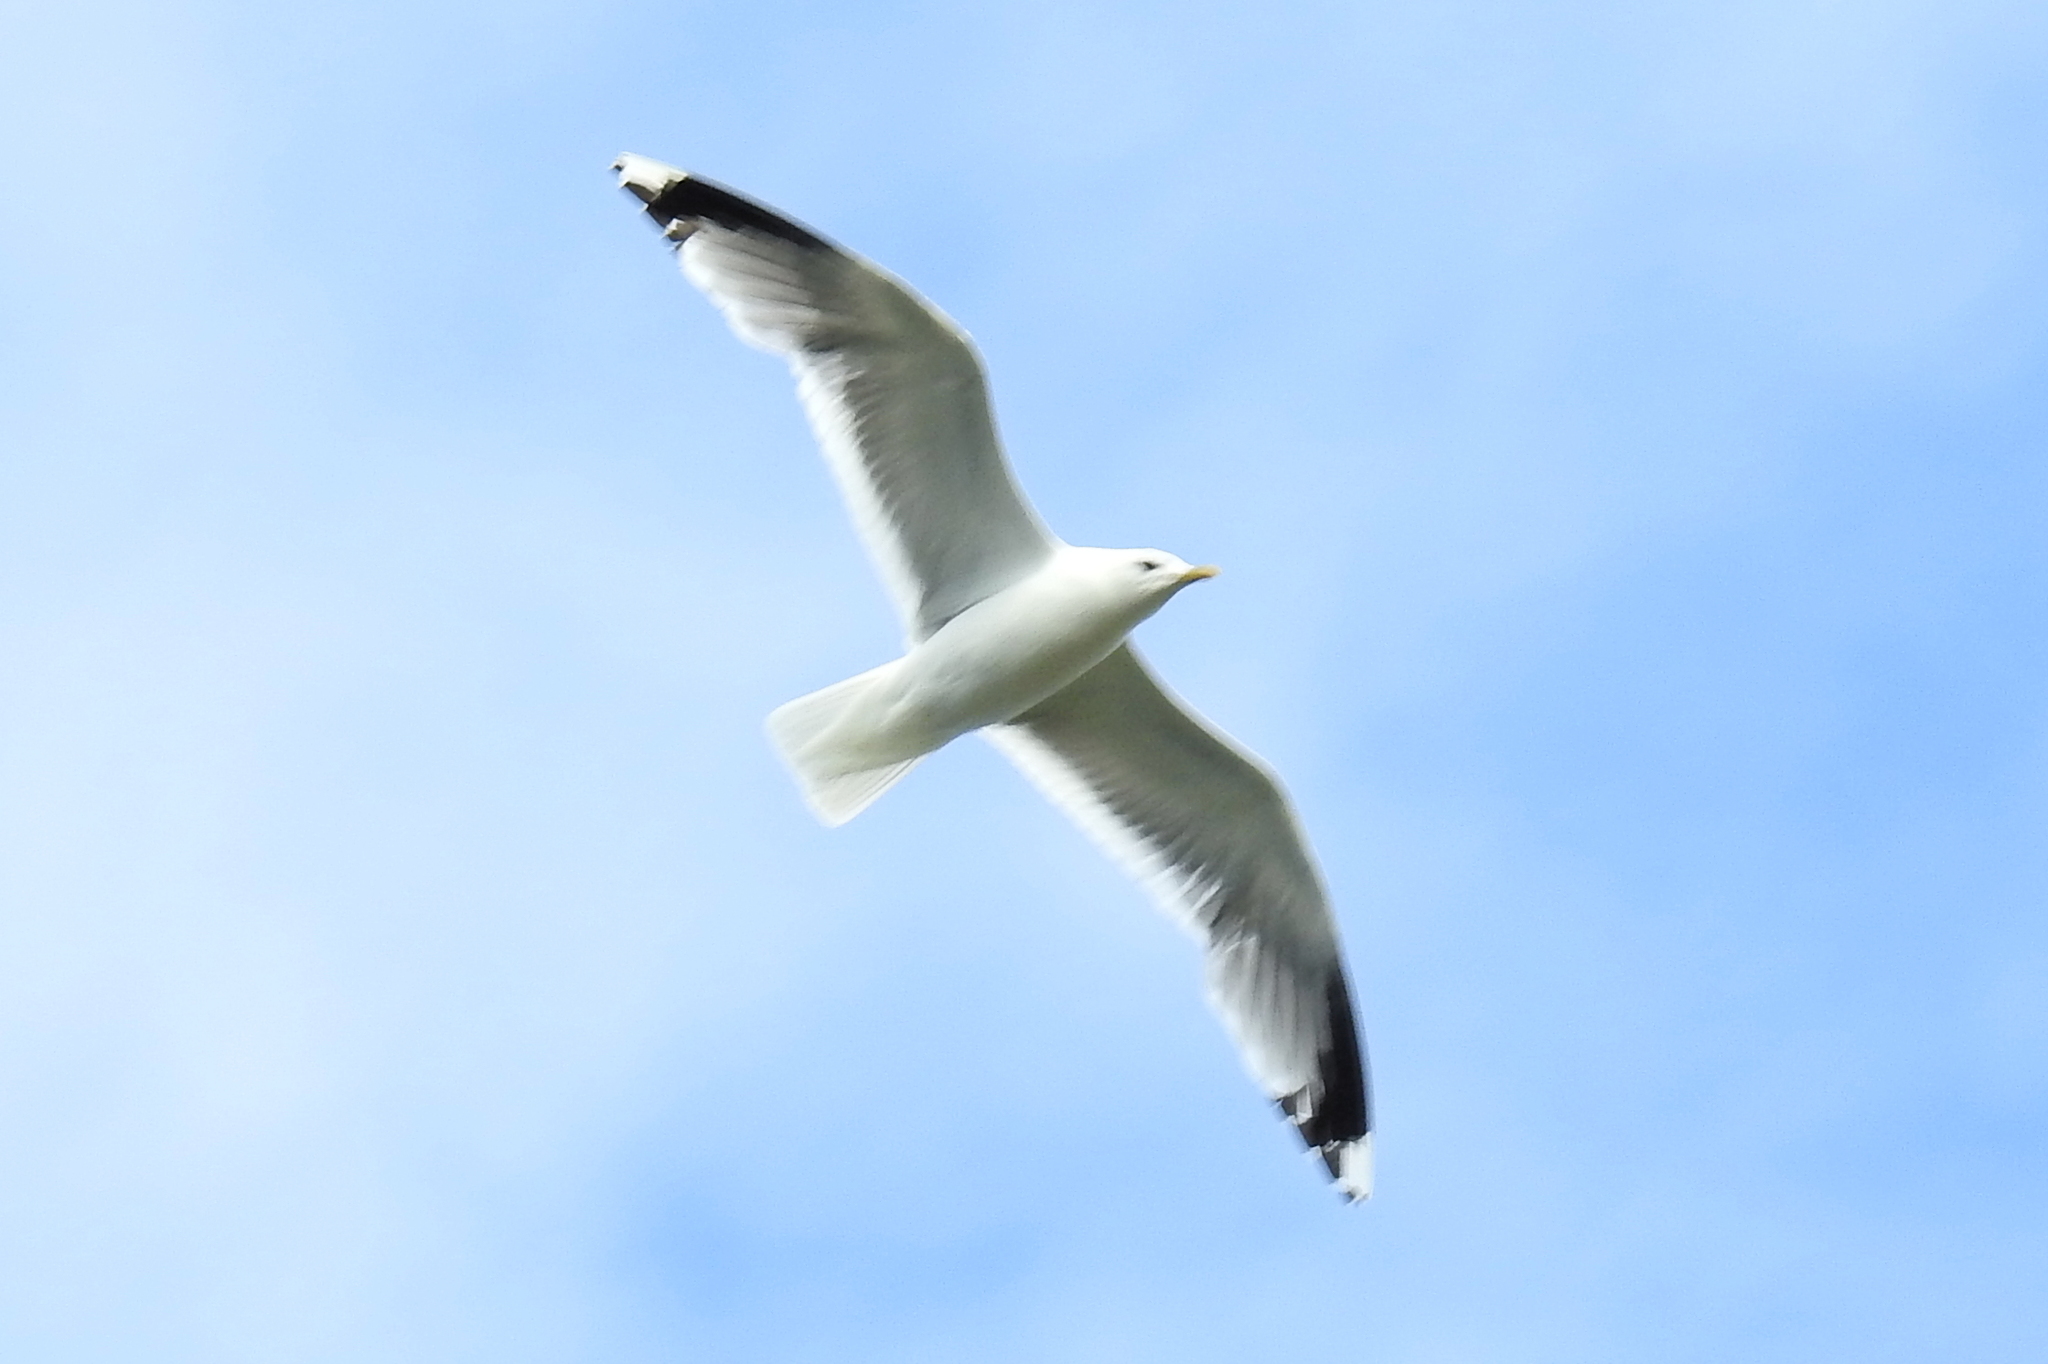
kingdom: Animalia
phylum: Chordata
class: Aves
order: Charadriiformes
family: Laridae
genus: Larus
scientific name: Larus canus
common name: Mew gull
